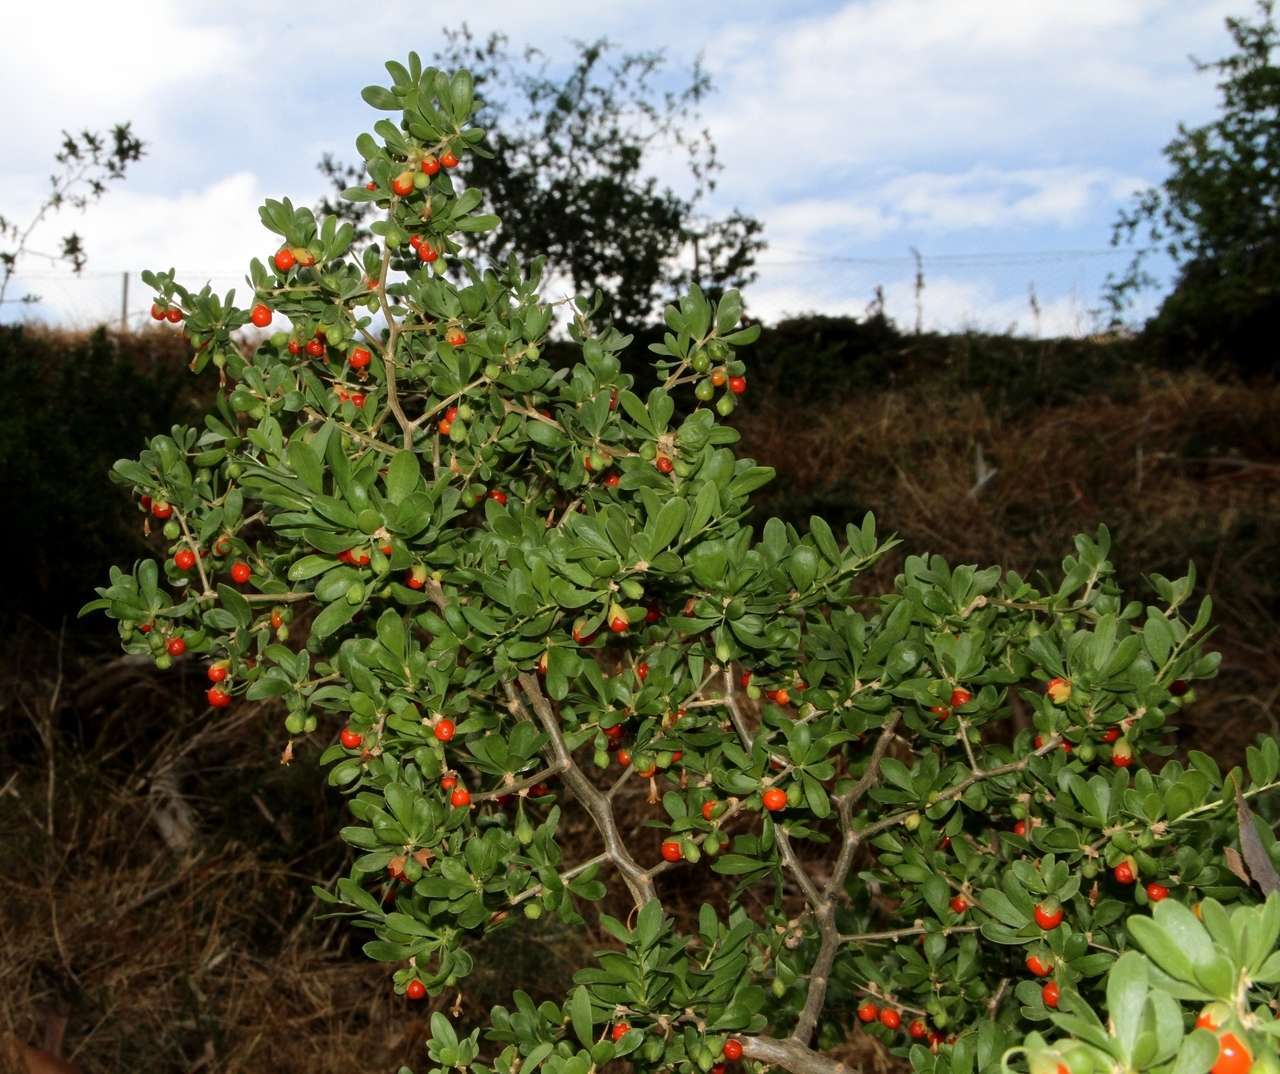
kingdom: Plantae
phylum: Tracheophyta
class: Magnoliopsida
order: Solanales
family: Solanaceae
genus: Lycium
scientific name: Lycium ferocissimum
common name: African boxthorn
